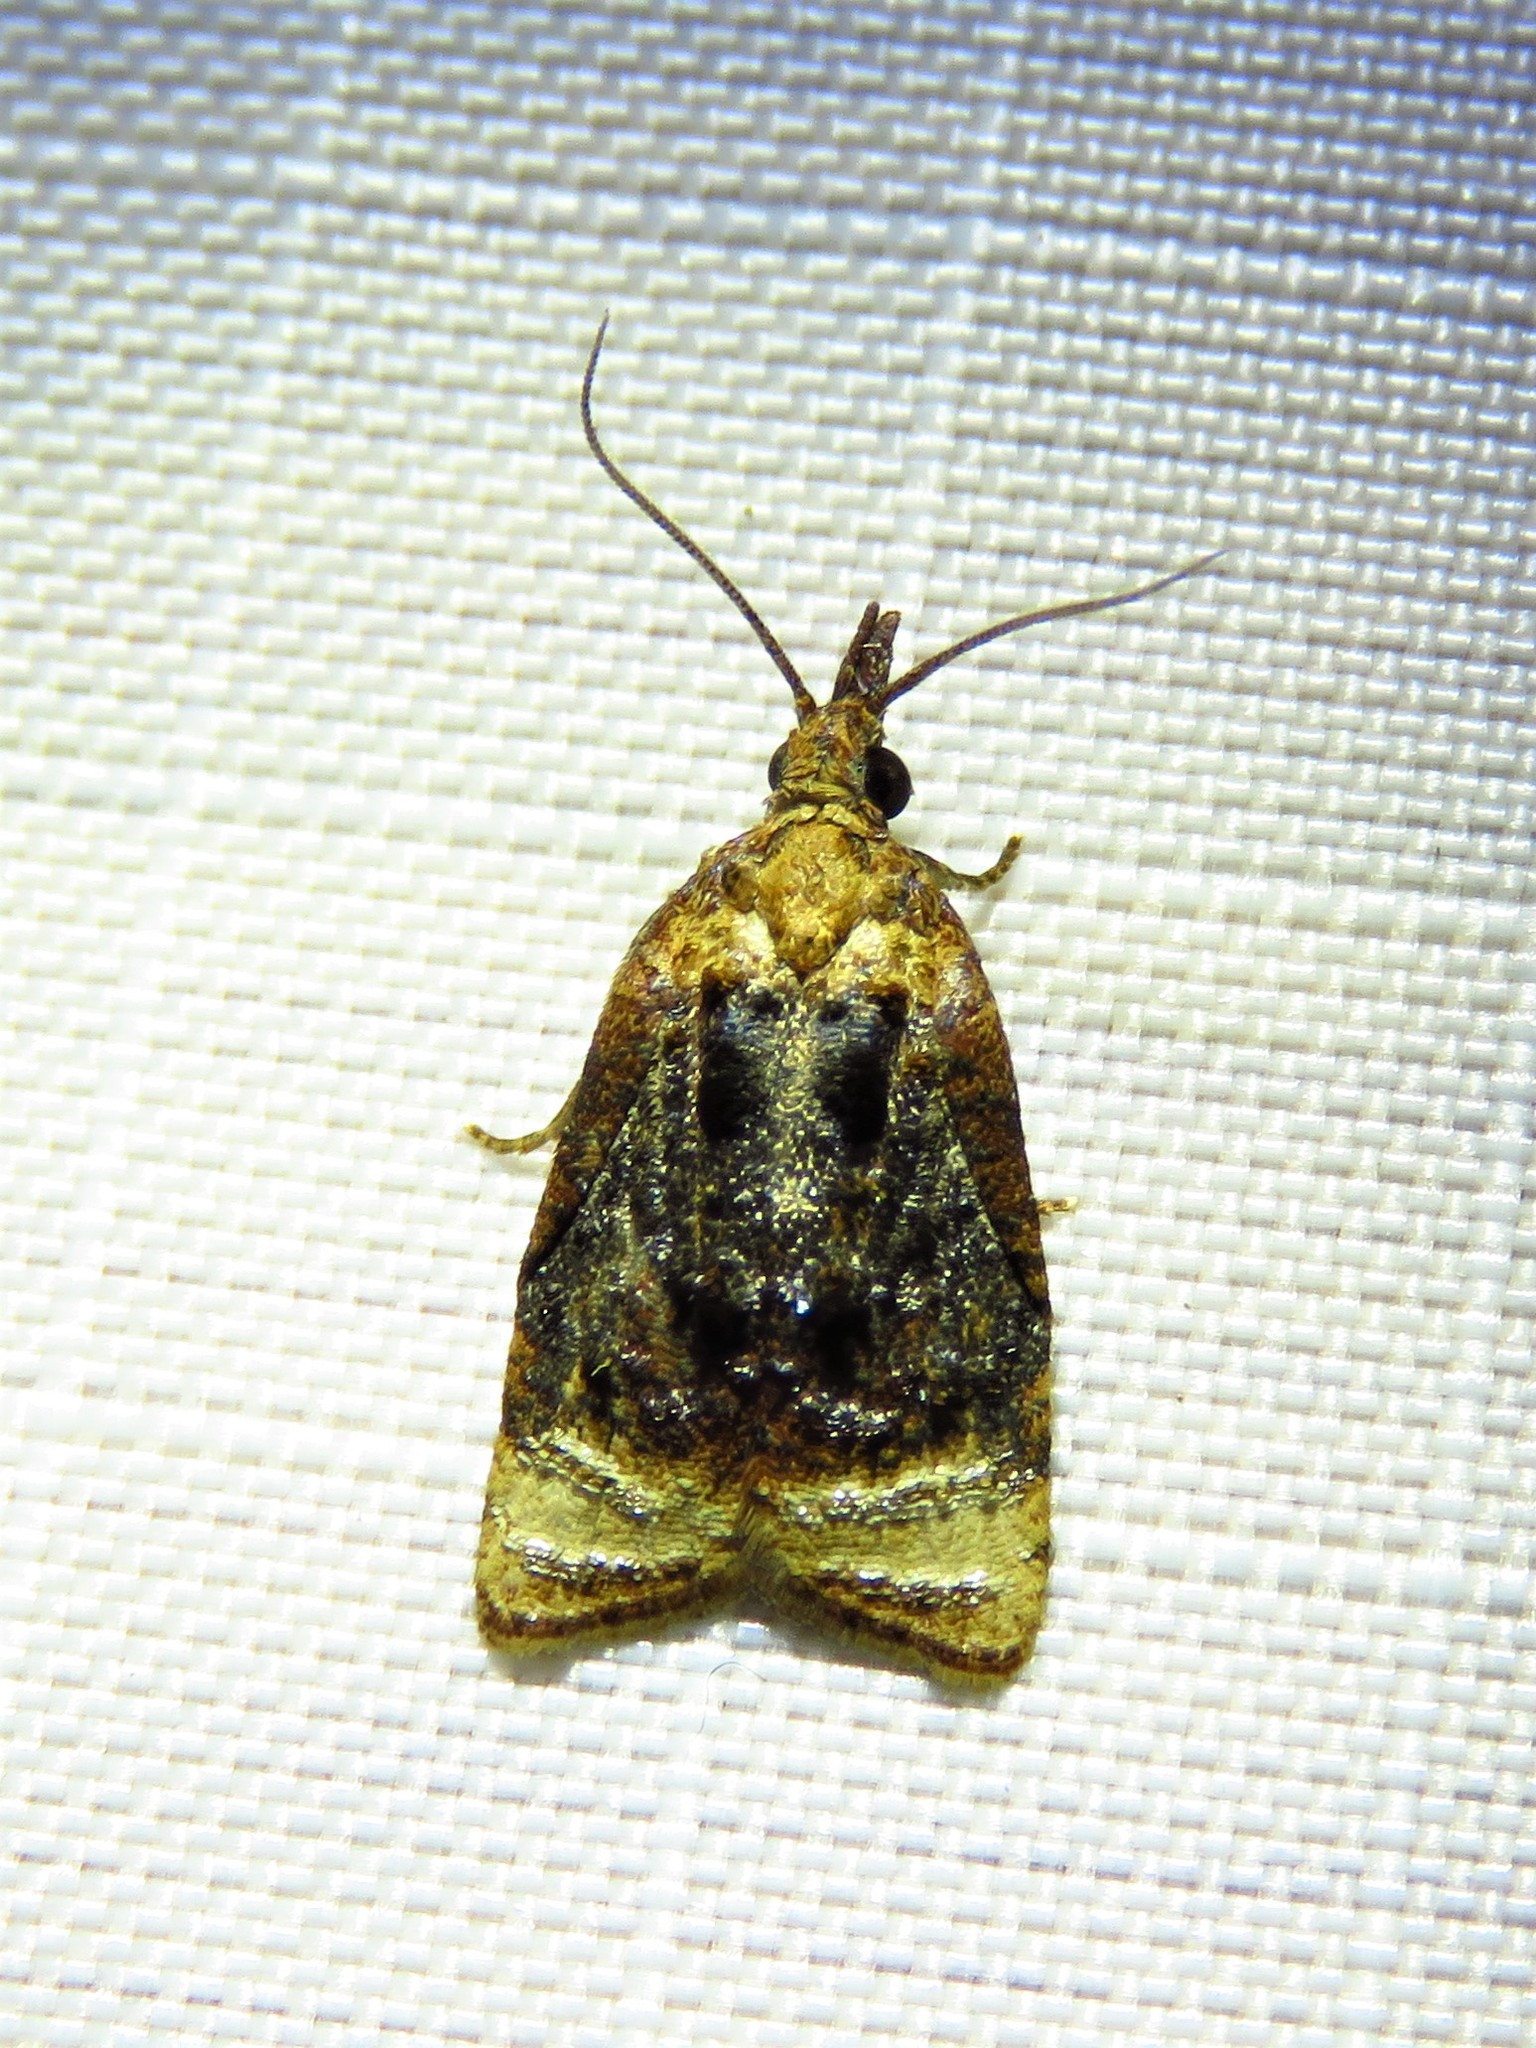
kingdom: Animalia
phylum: Arthropoda
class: Insecta
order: Lepidoptera
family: Tortricidae
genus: Platynota
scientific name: Platynota flavedana
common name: Black-shaded platynota moth
